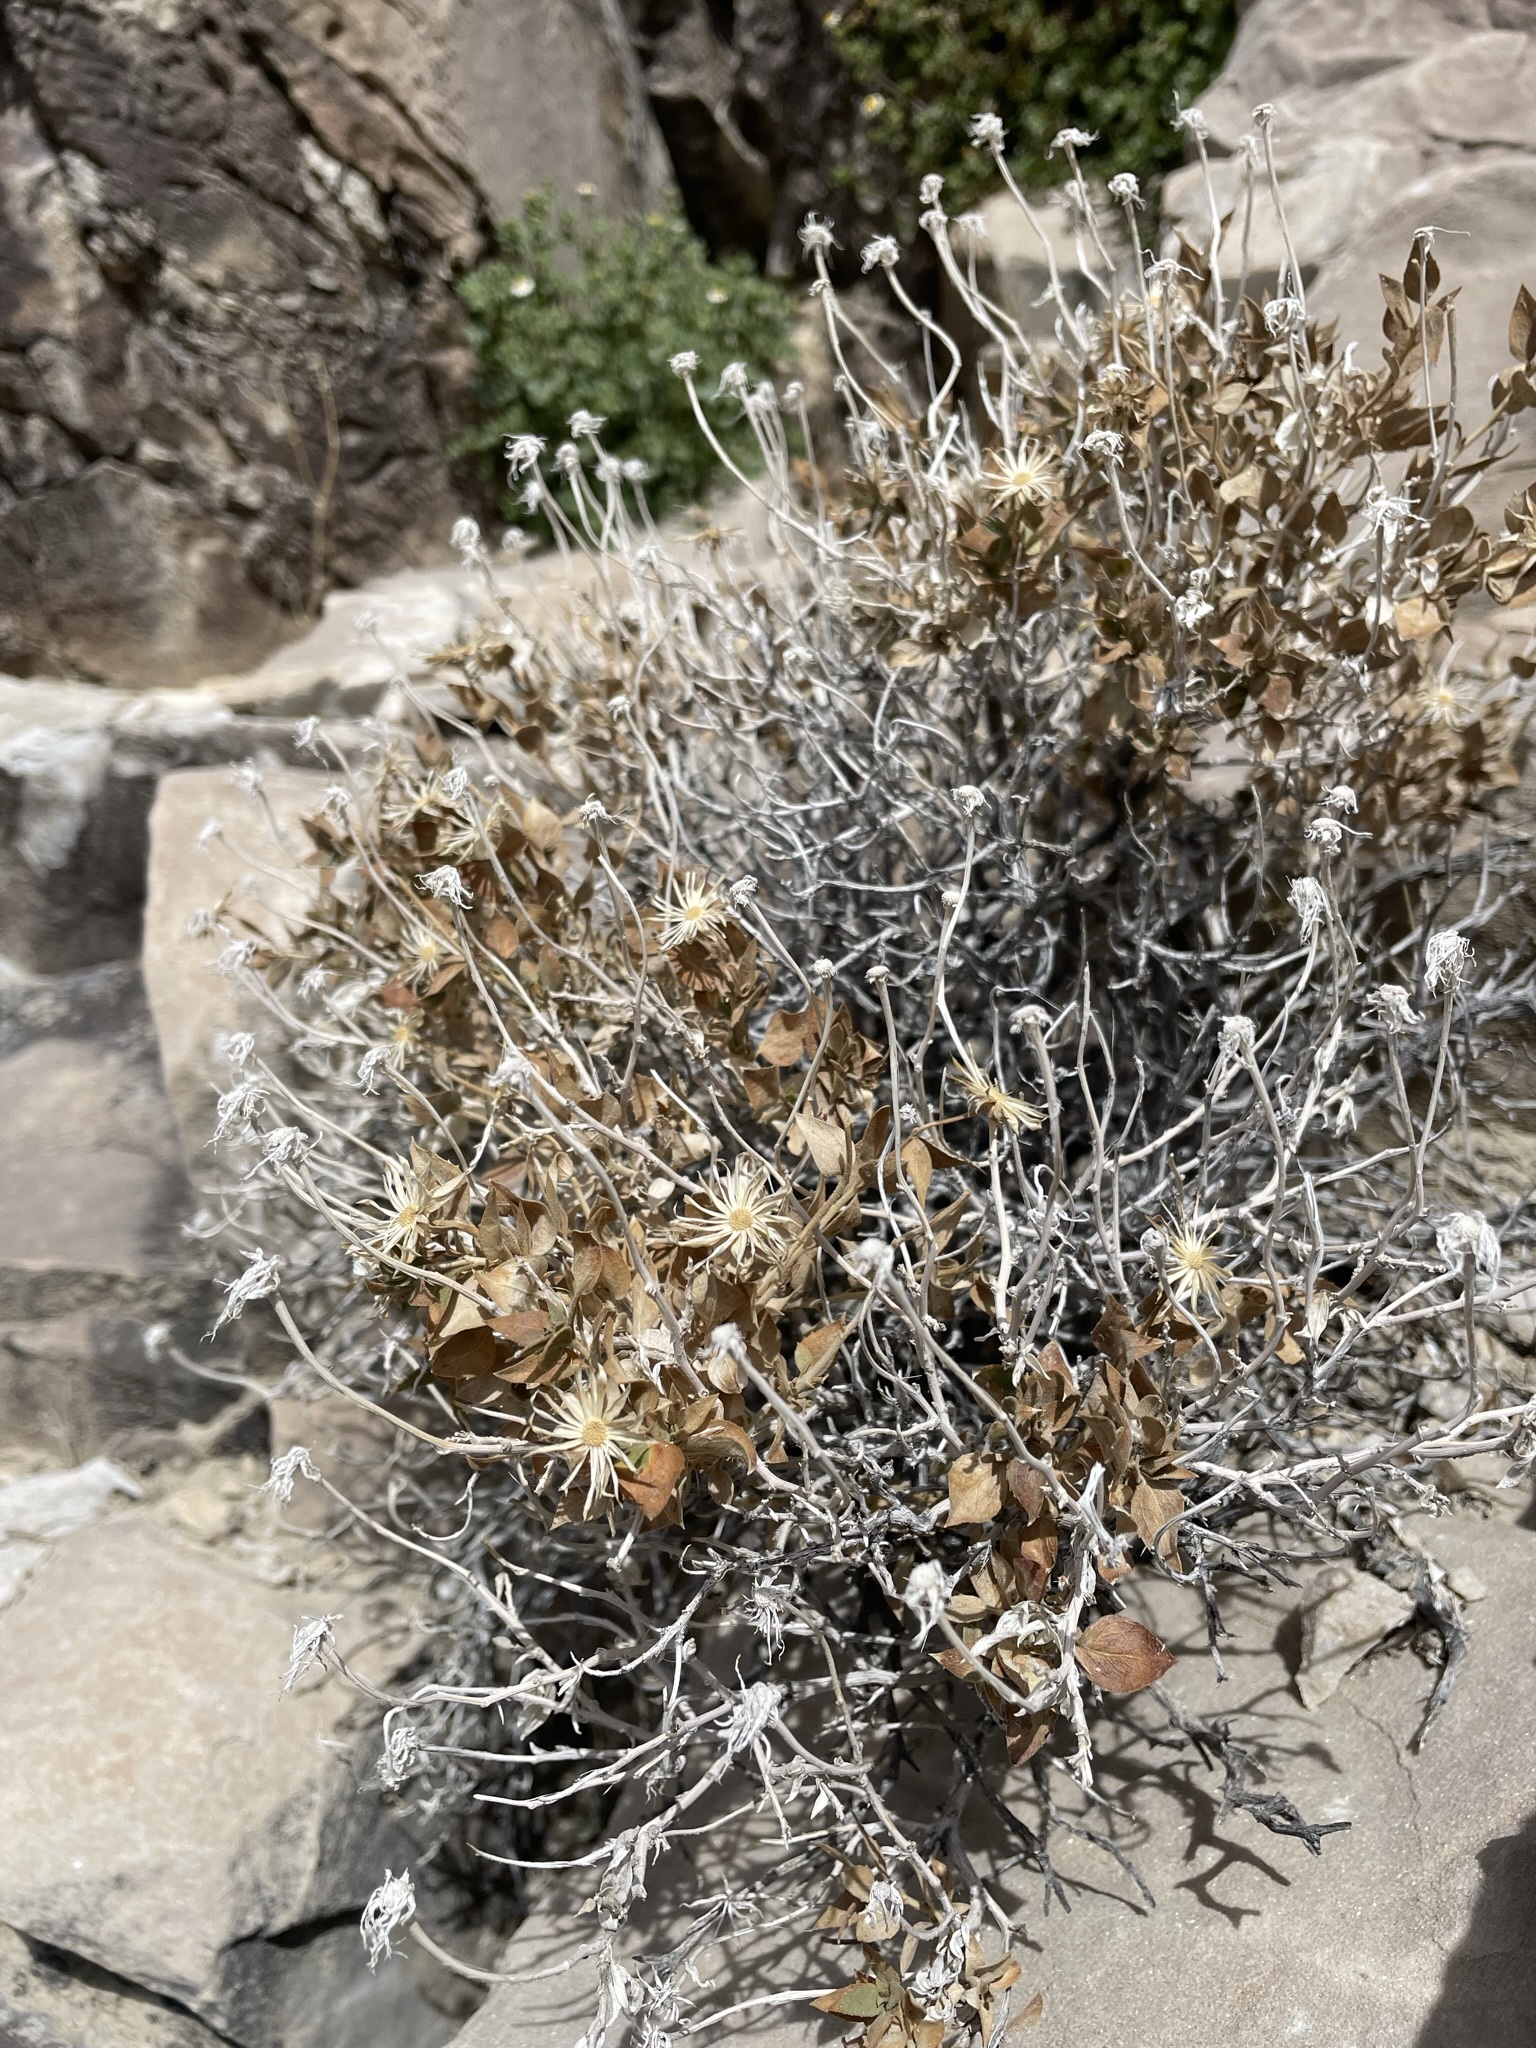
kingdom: Plantae
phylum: Tracheophyta
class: Magnoliopsida
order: Asterales
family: Asteraceae
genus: Brickellia
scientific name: Brickellia atractyloides
